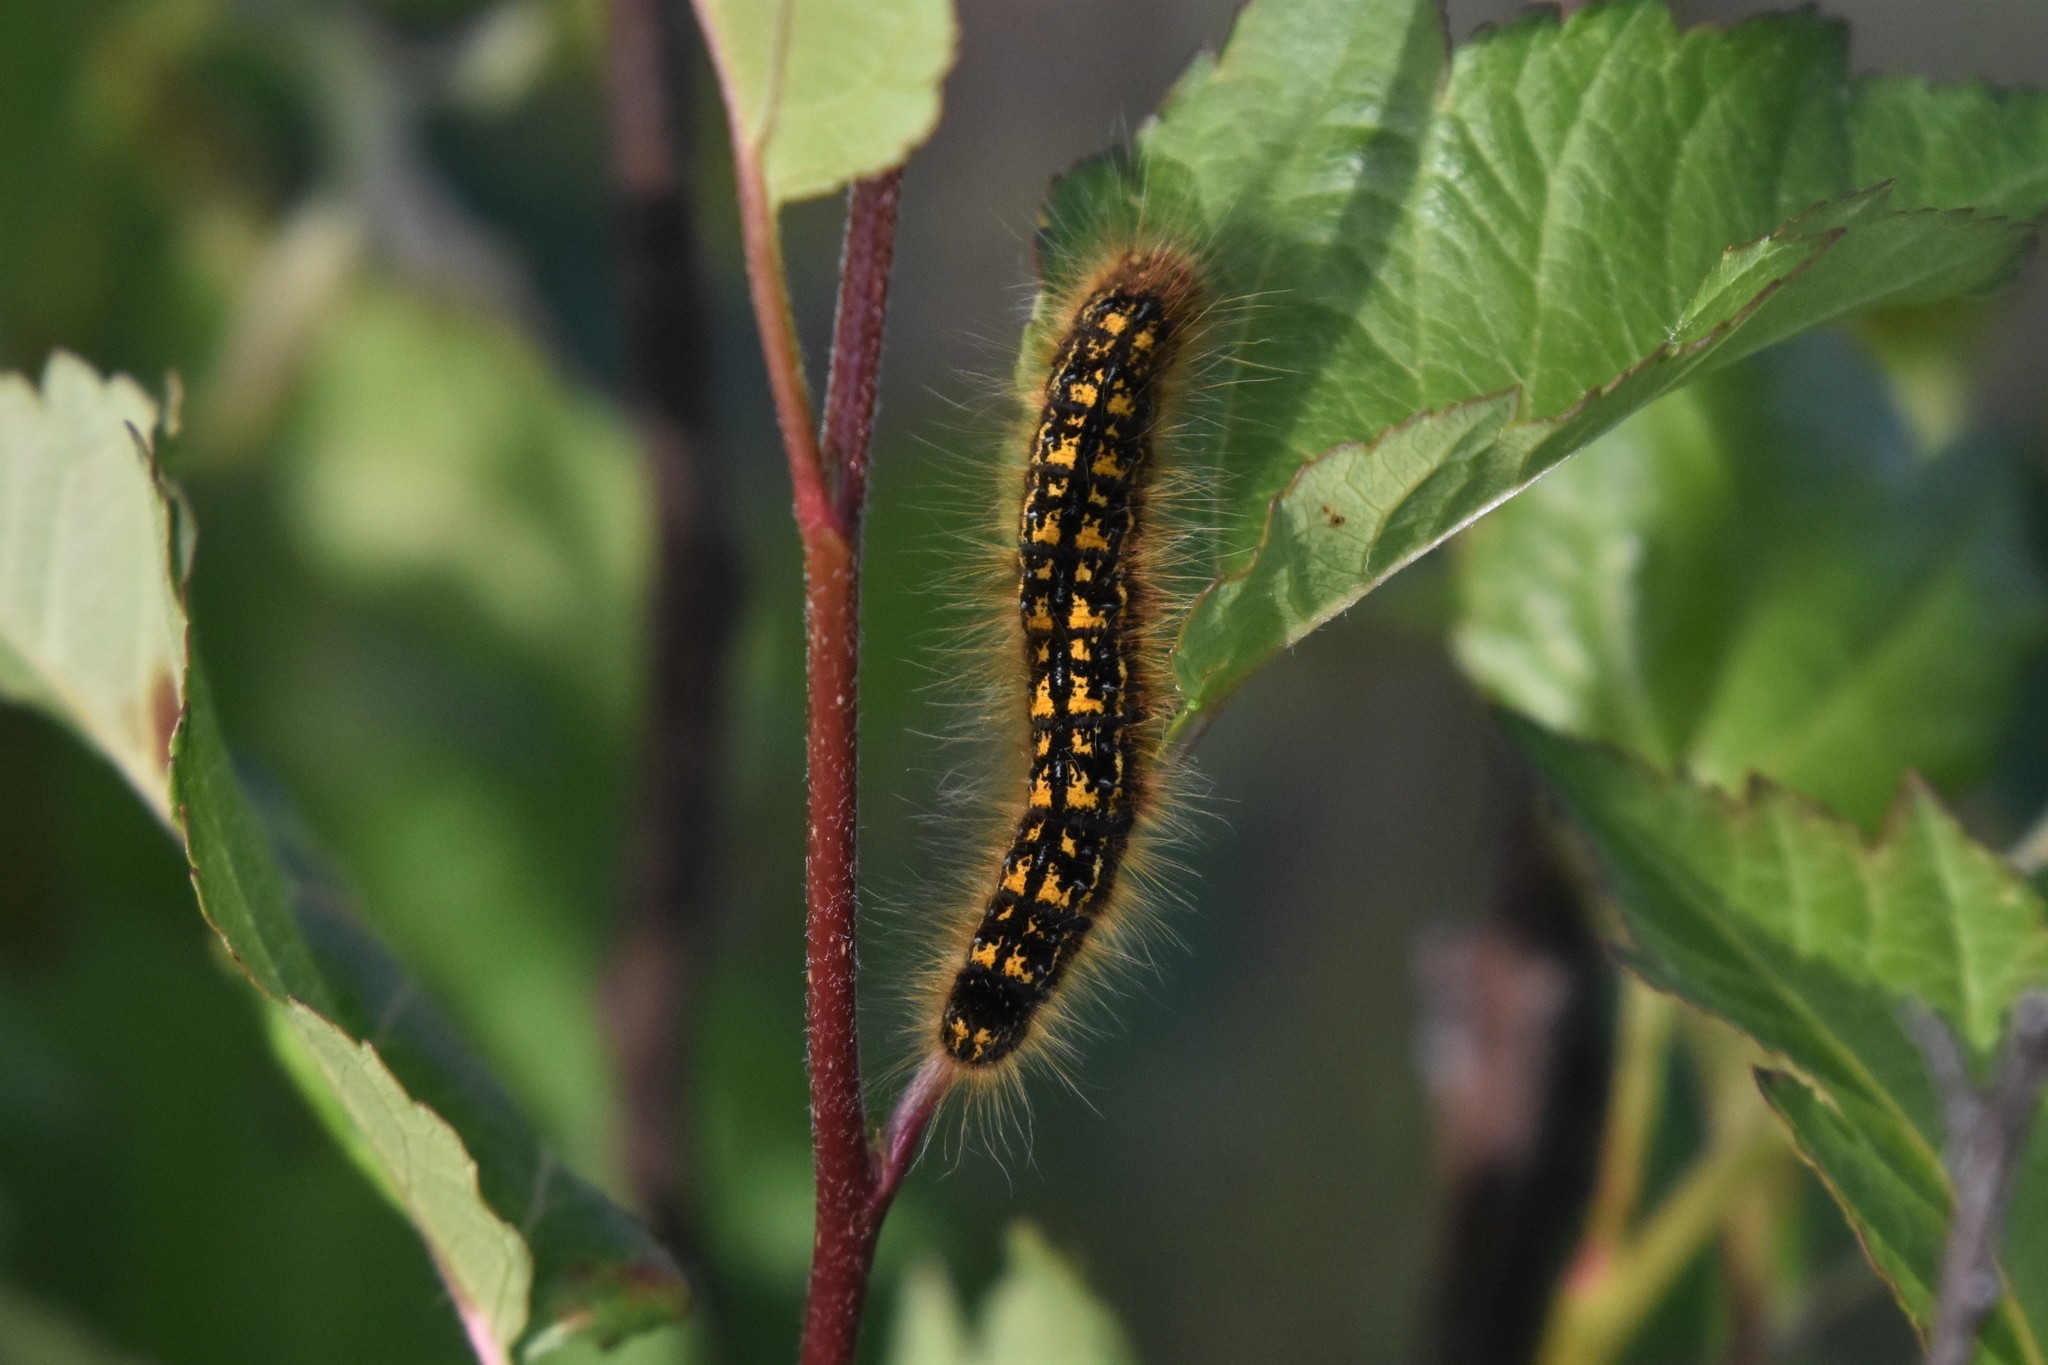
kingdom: Animalia
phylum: Arthropoda
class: Insecta
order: Lepidoptera
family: Lasiocampidae
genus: Malacosoma
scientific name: Malacosoma californica
